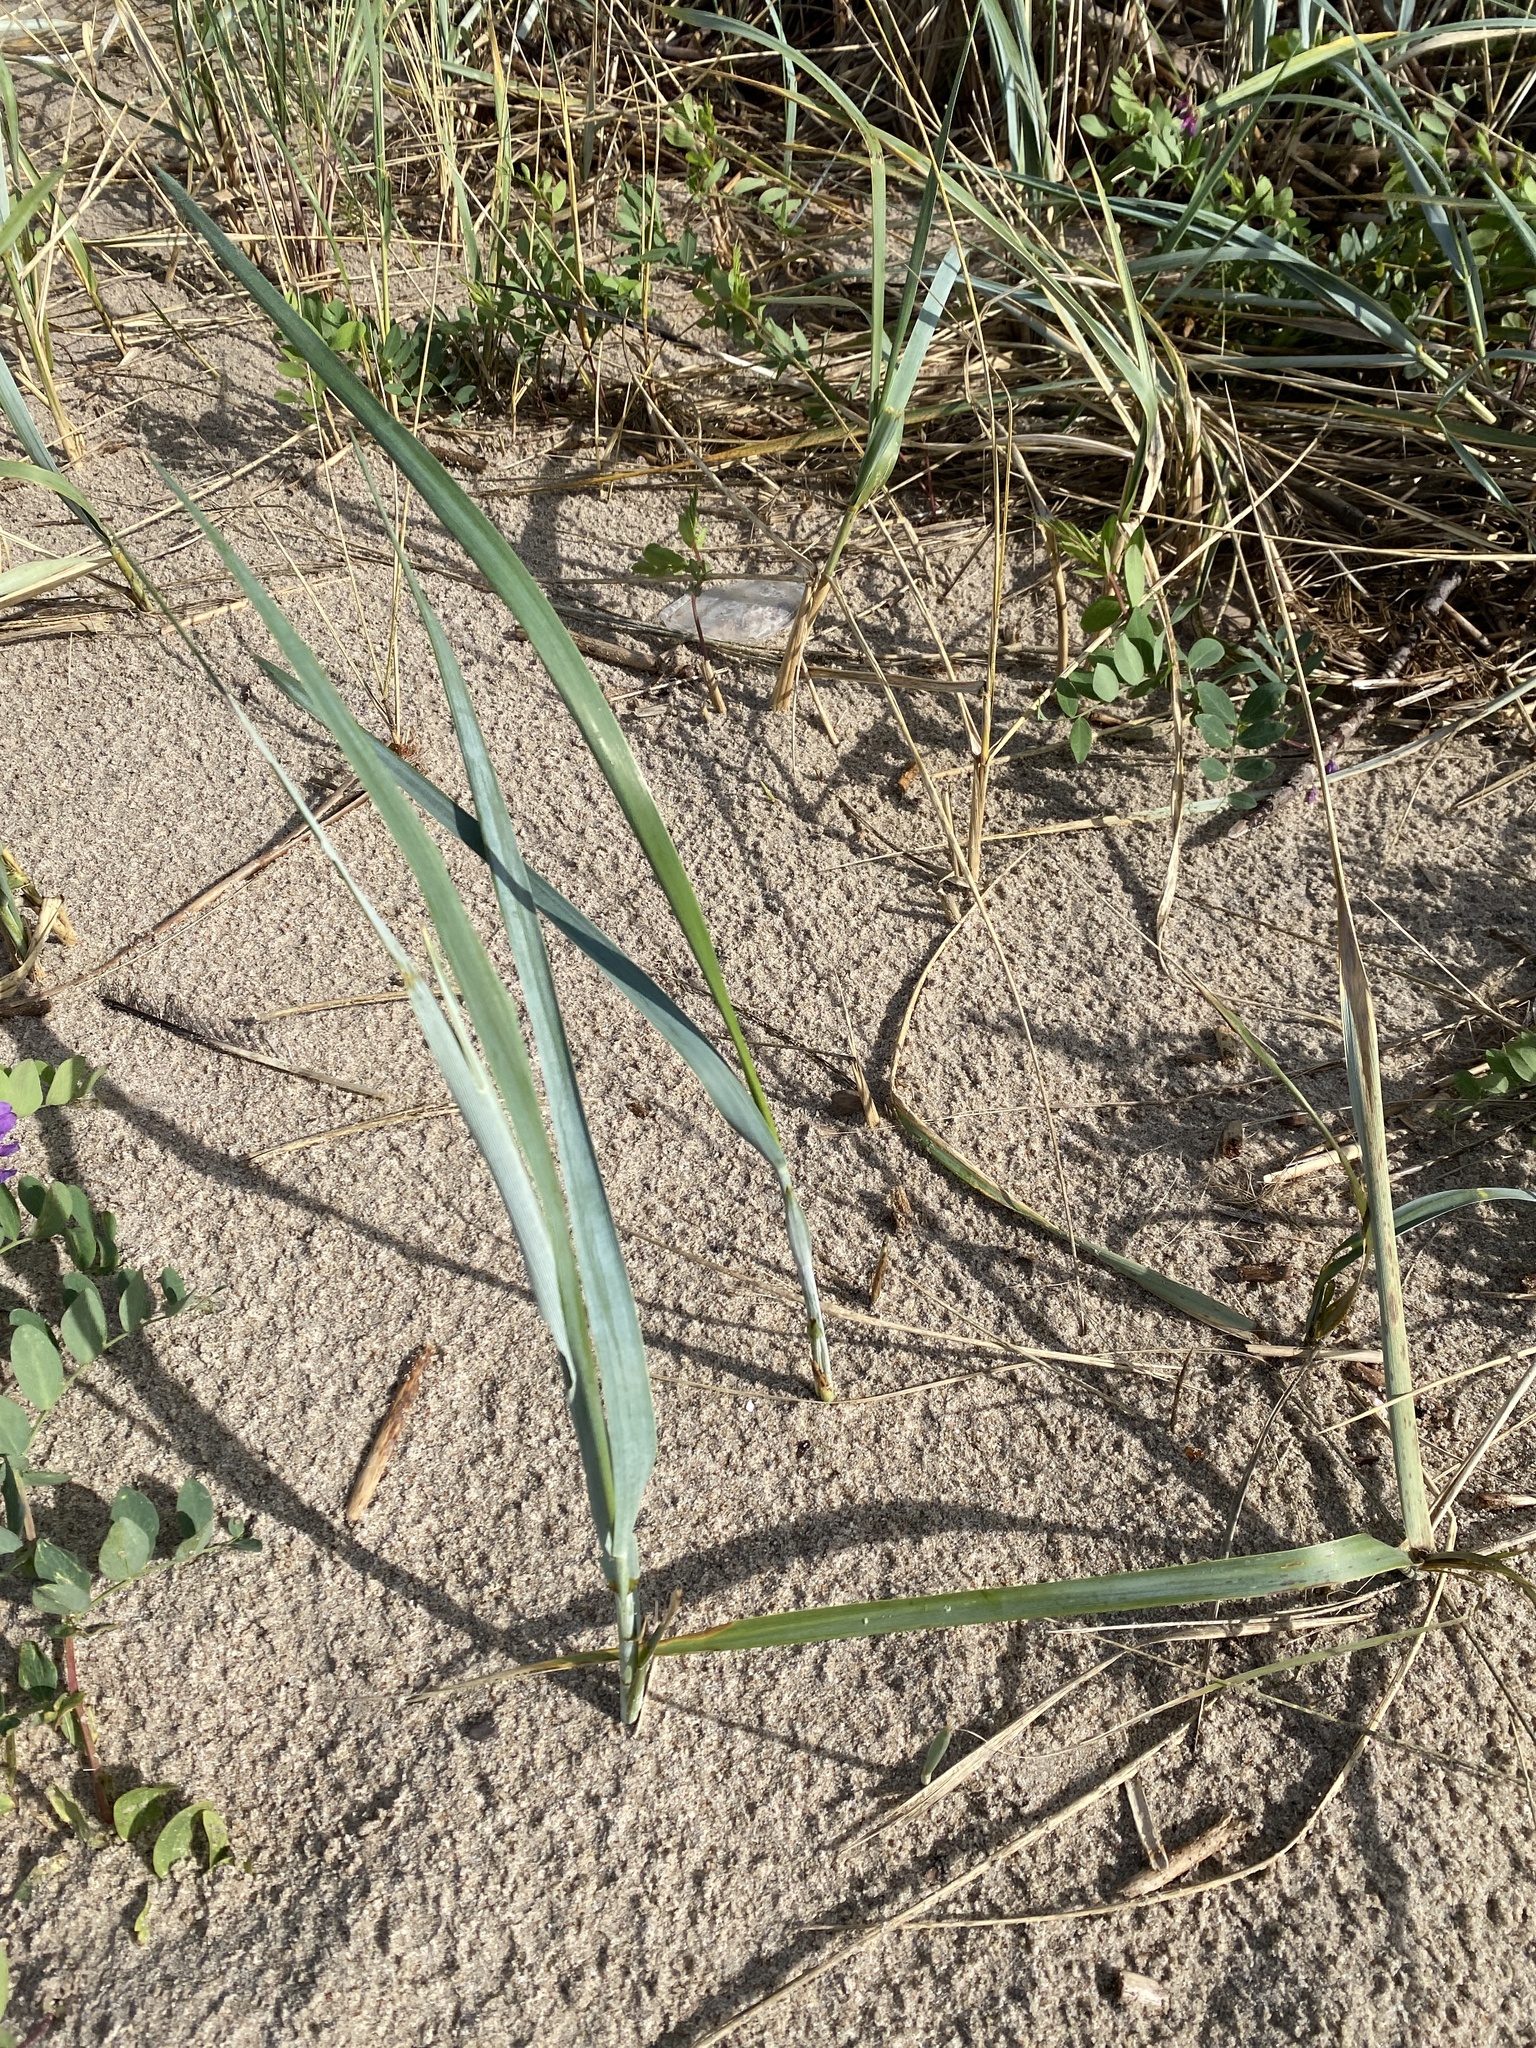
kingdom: Plantae
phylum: Tracheophyta
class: Liliopsida
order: Poales
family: Poaceae
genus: Leymus
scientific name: Leymus arenarius
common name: Lyme-grass
